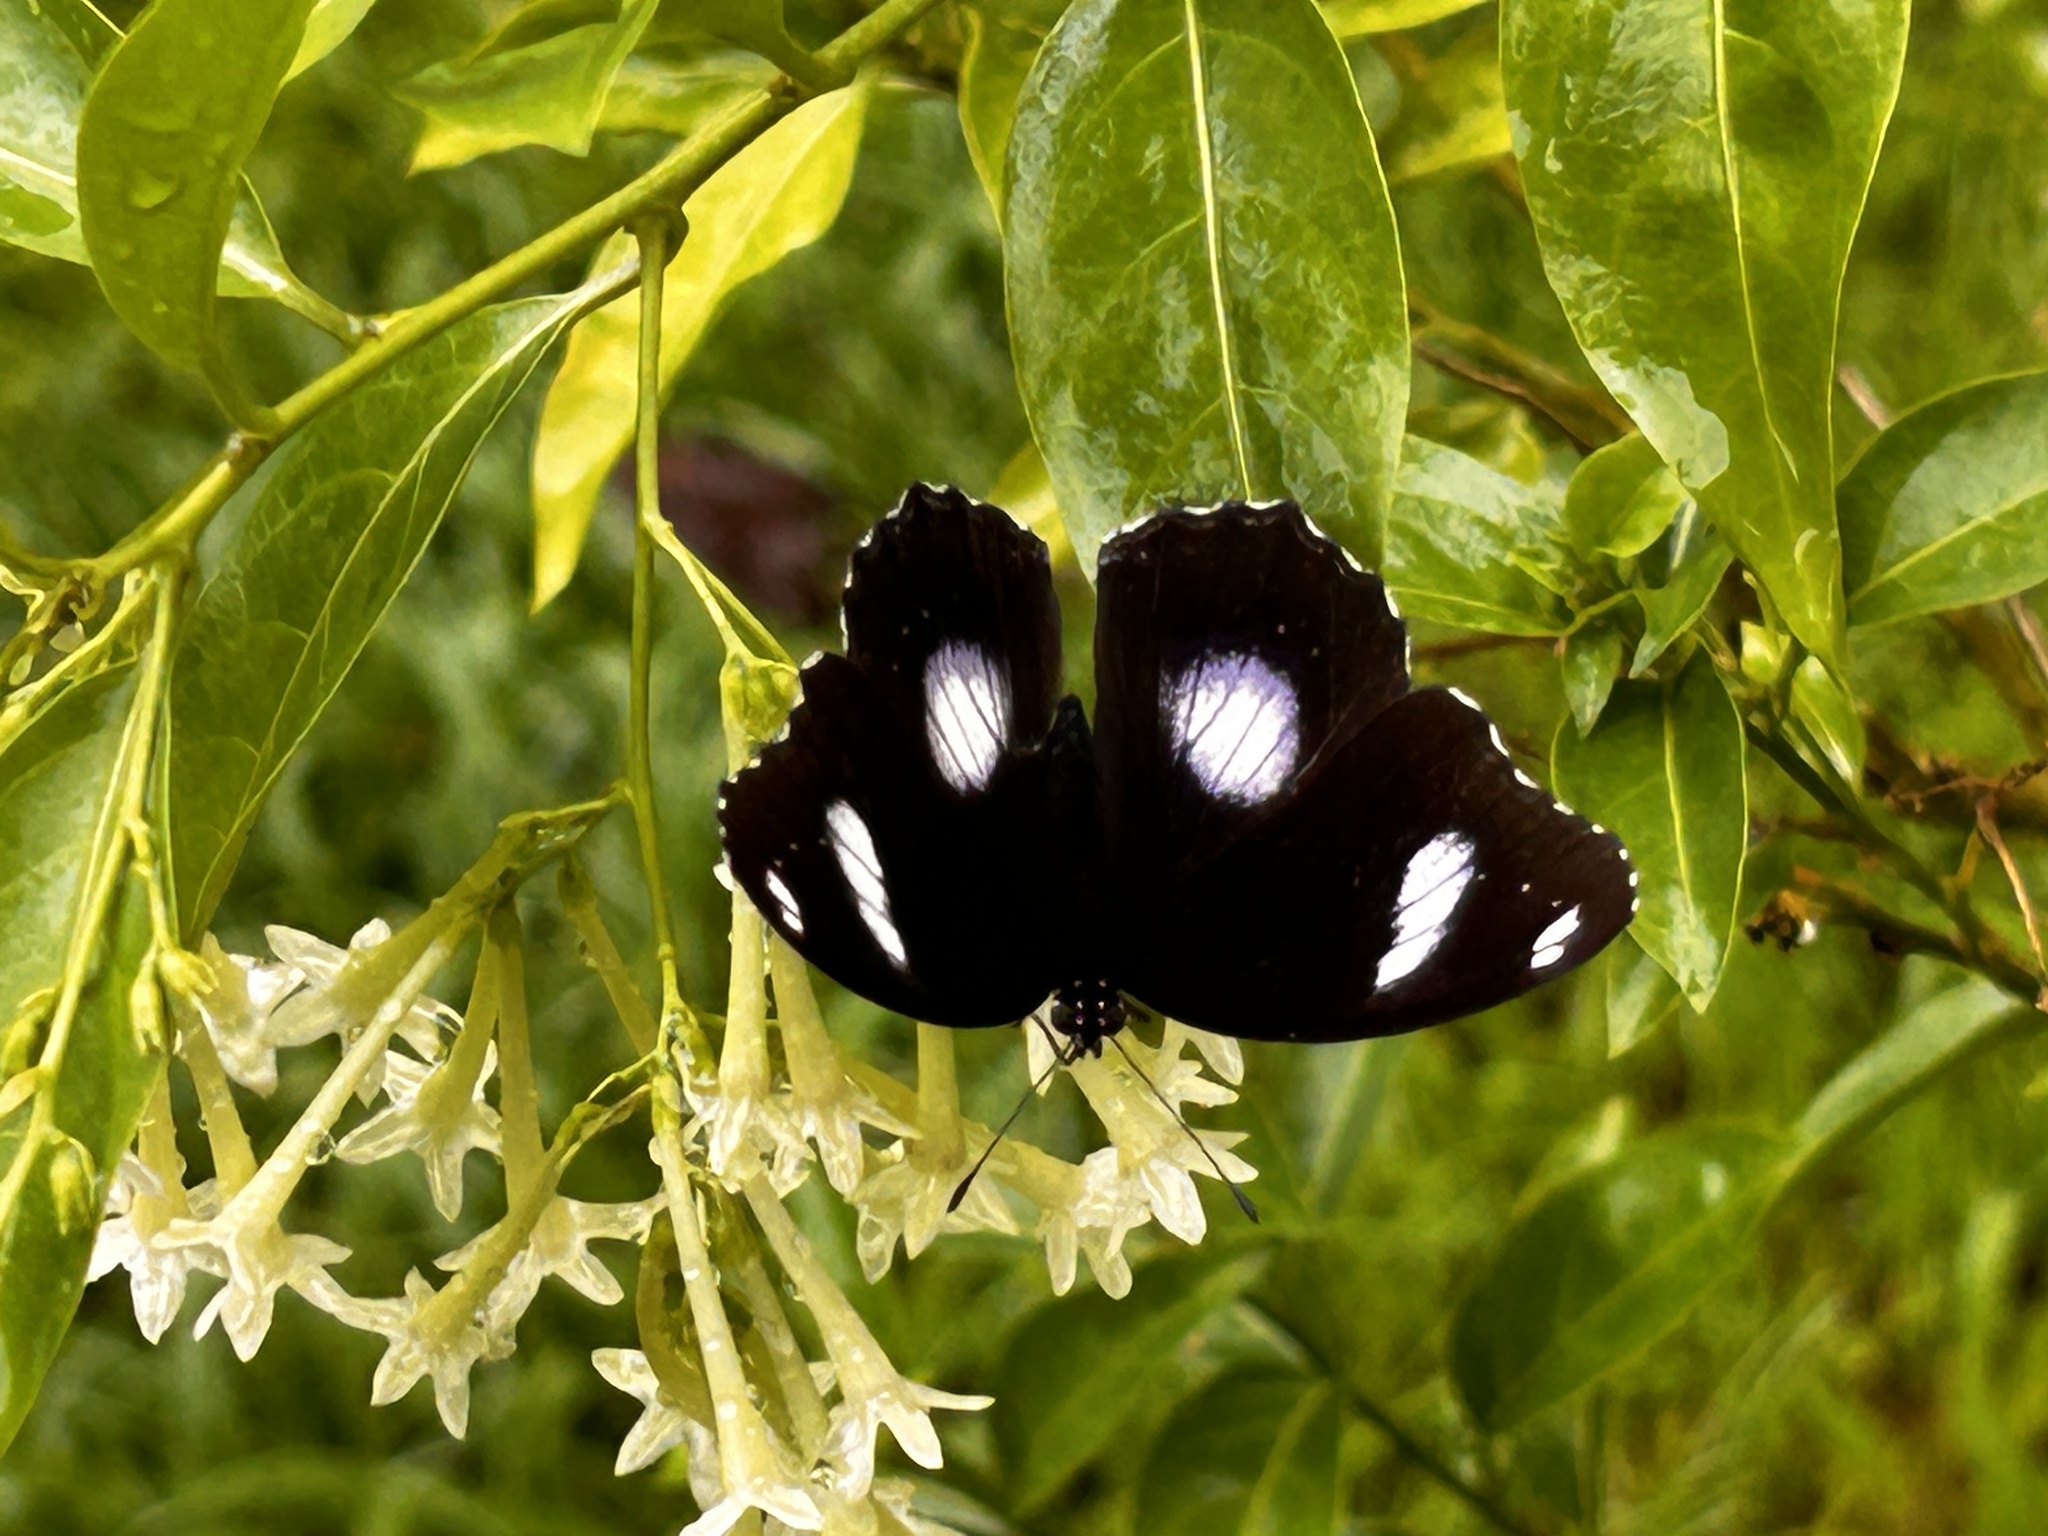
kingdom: Animalia
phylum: Arthropoda
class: Insecta
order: Lepidoptera
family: Nymphalidae
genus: Hypolimnas
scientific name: Hypolimnas bolina
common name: Great eggfly
